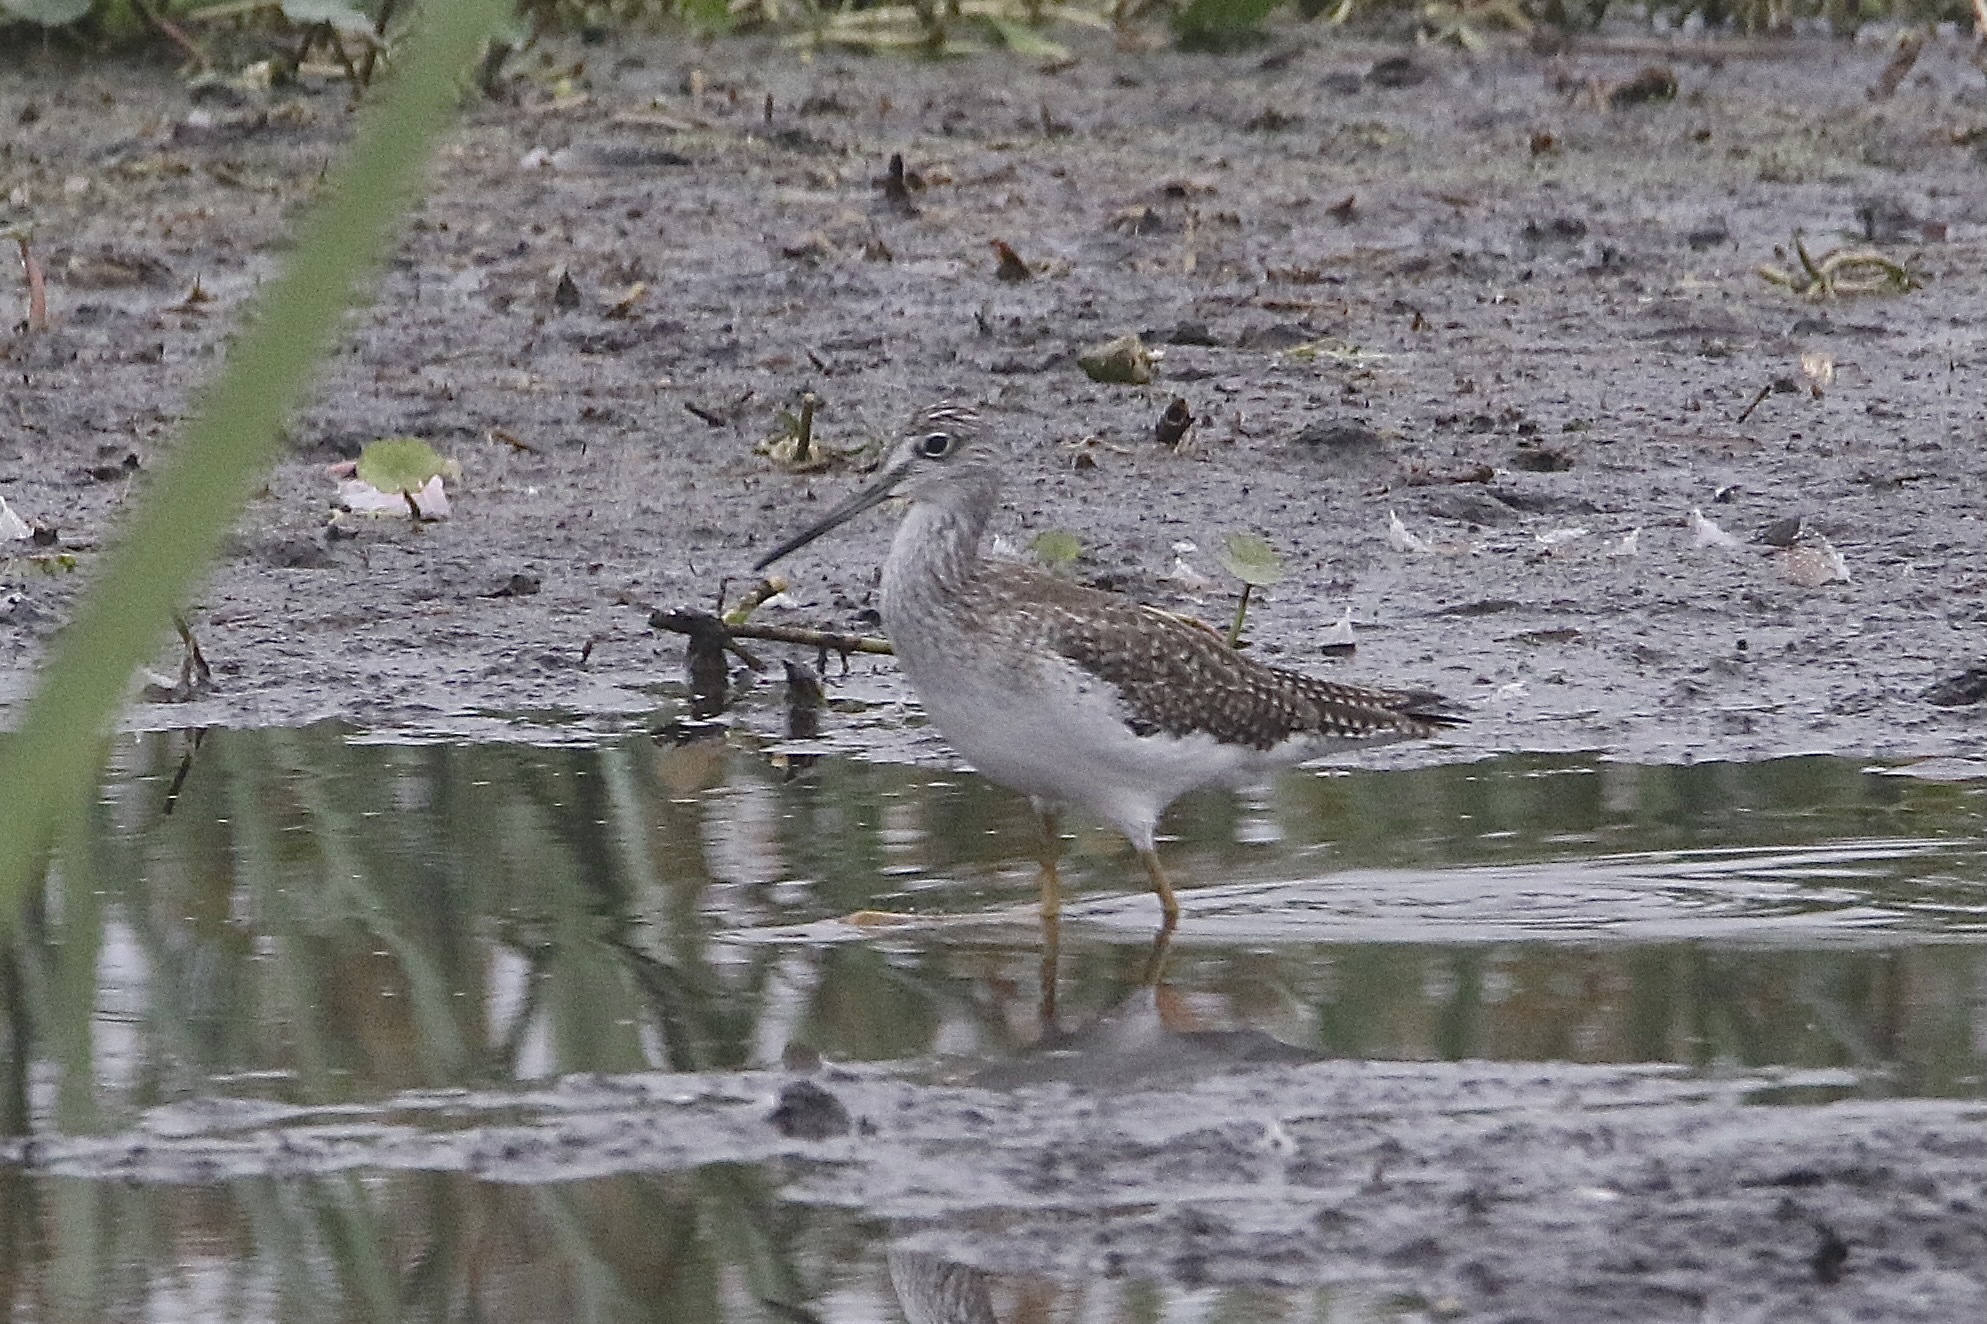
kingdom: Animalia
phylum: Chordata
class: Aves
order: Charadriiformes
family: Scolopacidae
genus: Tringa
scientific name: Tringa melanoleuca
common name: Greater yellowlegs
